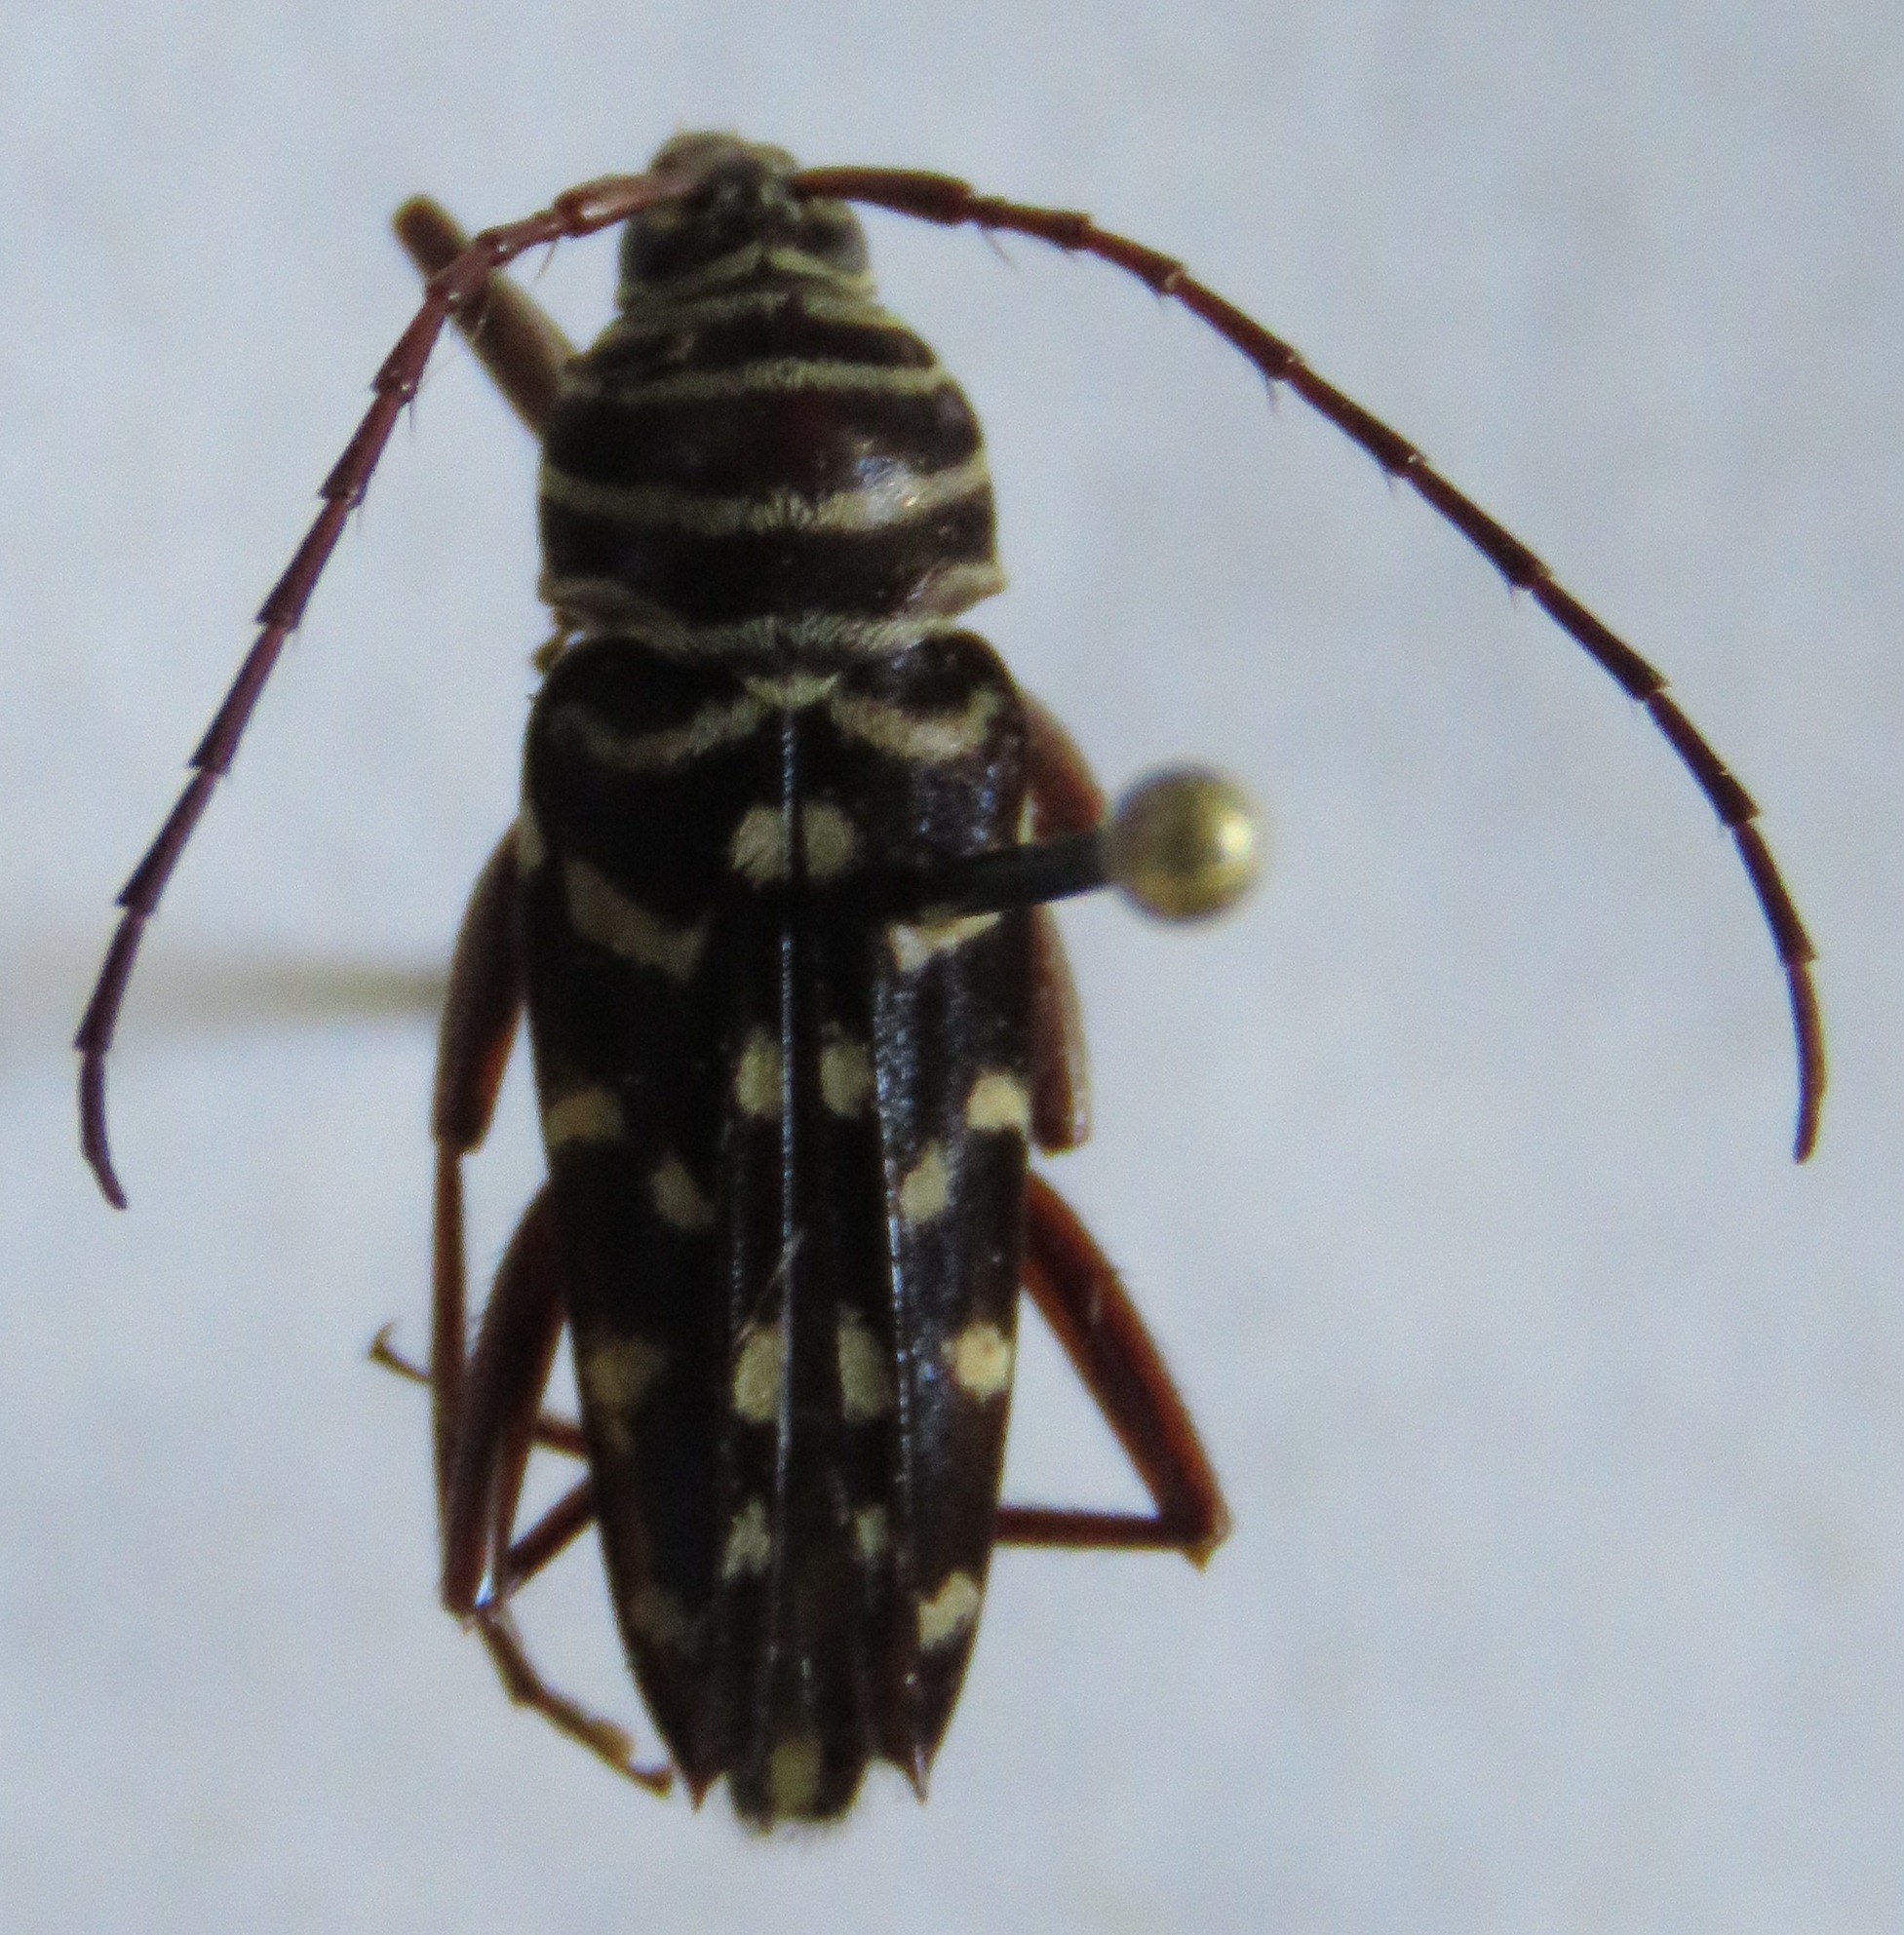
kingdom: Animalia
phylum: Arthropoda
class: Insecta
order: Coleoptera
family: Cerambycidae
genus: Placosternus
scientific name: Placosternus crinicornis
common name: Kiawe round headed borer
